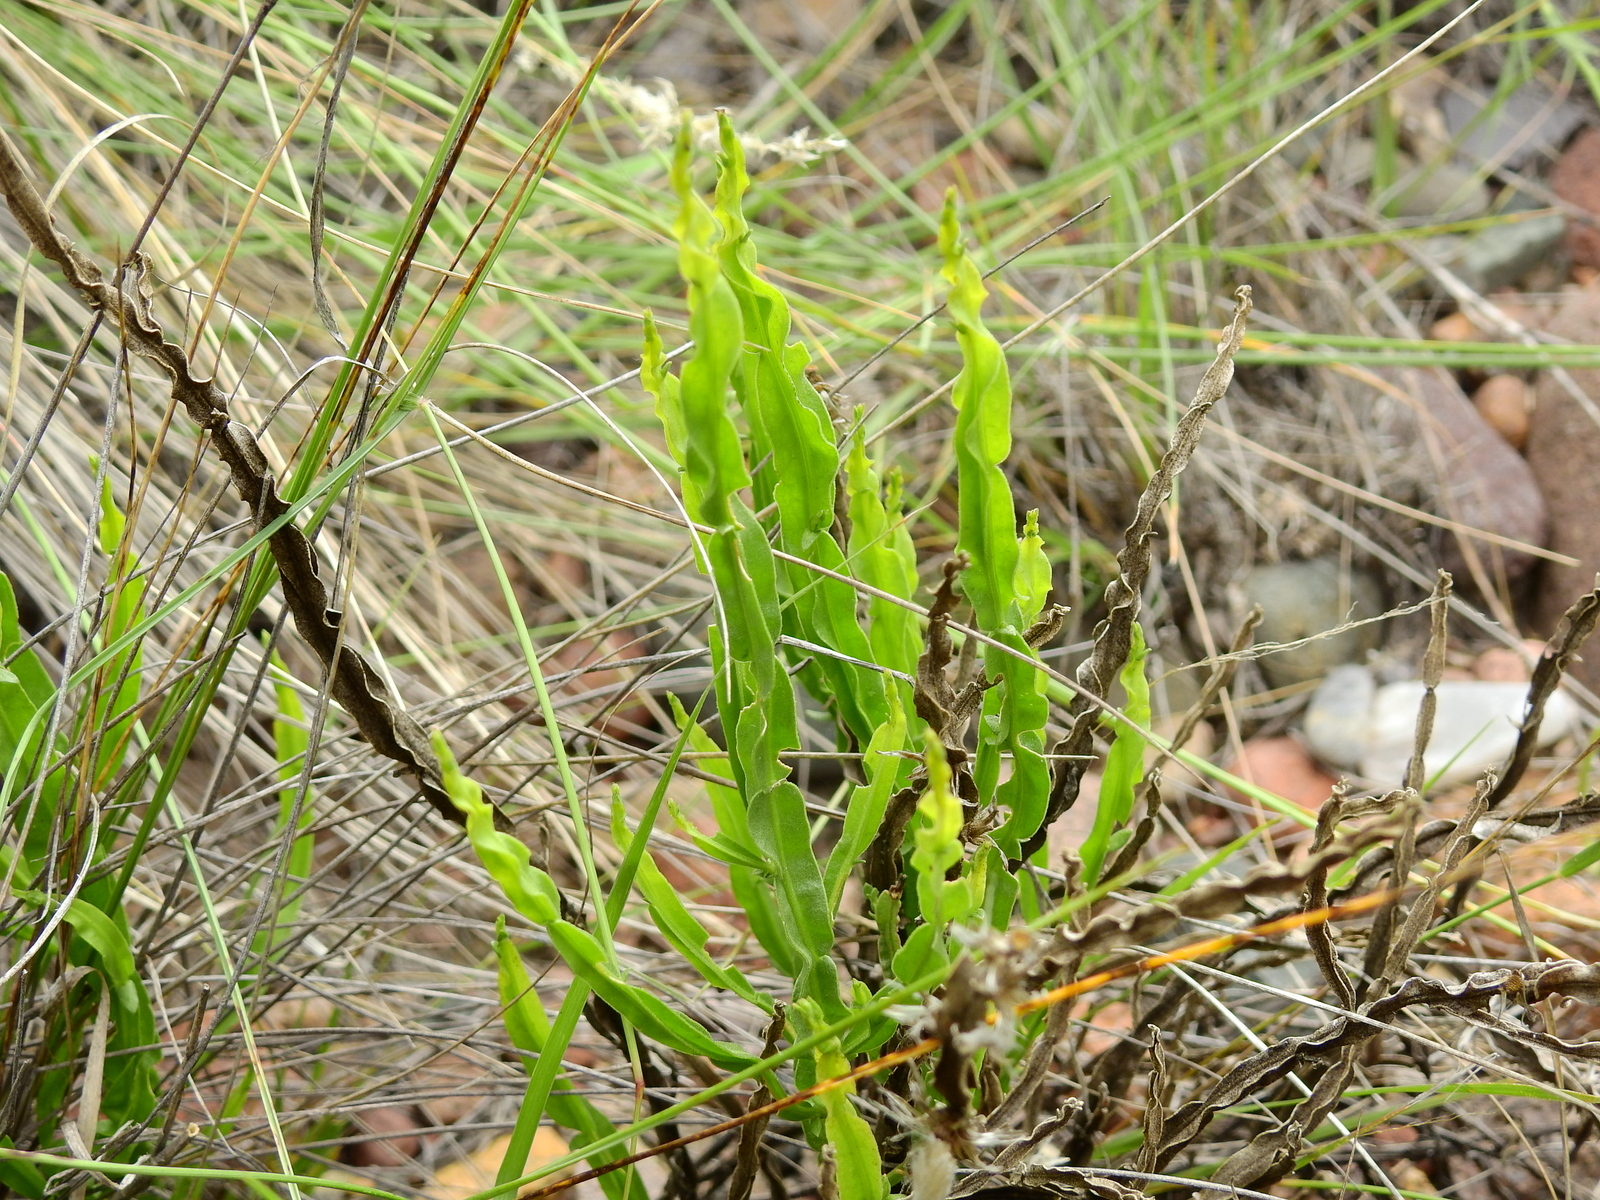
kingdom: Plantae
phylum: Tracheophyta
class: Magnoliopsida
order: Asterales
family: Asteraceae
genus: Baccharis
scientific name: Baccharis crispa
